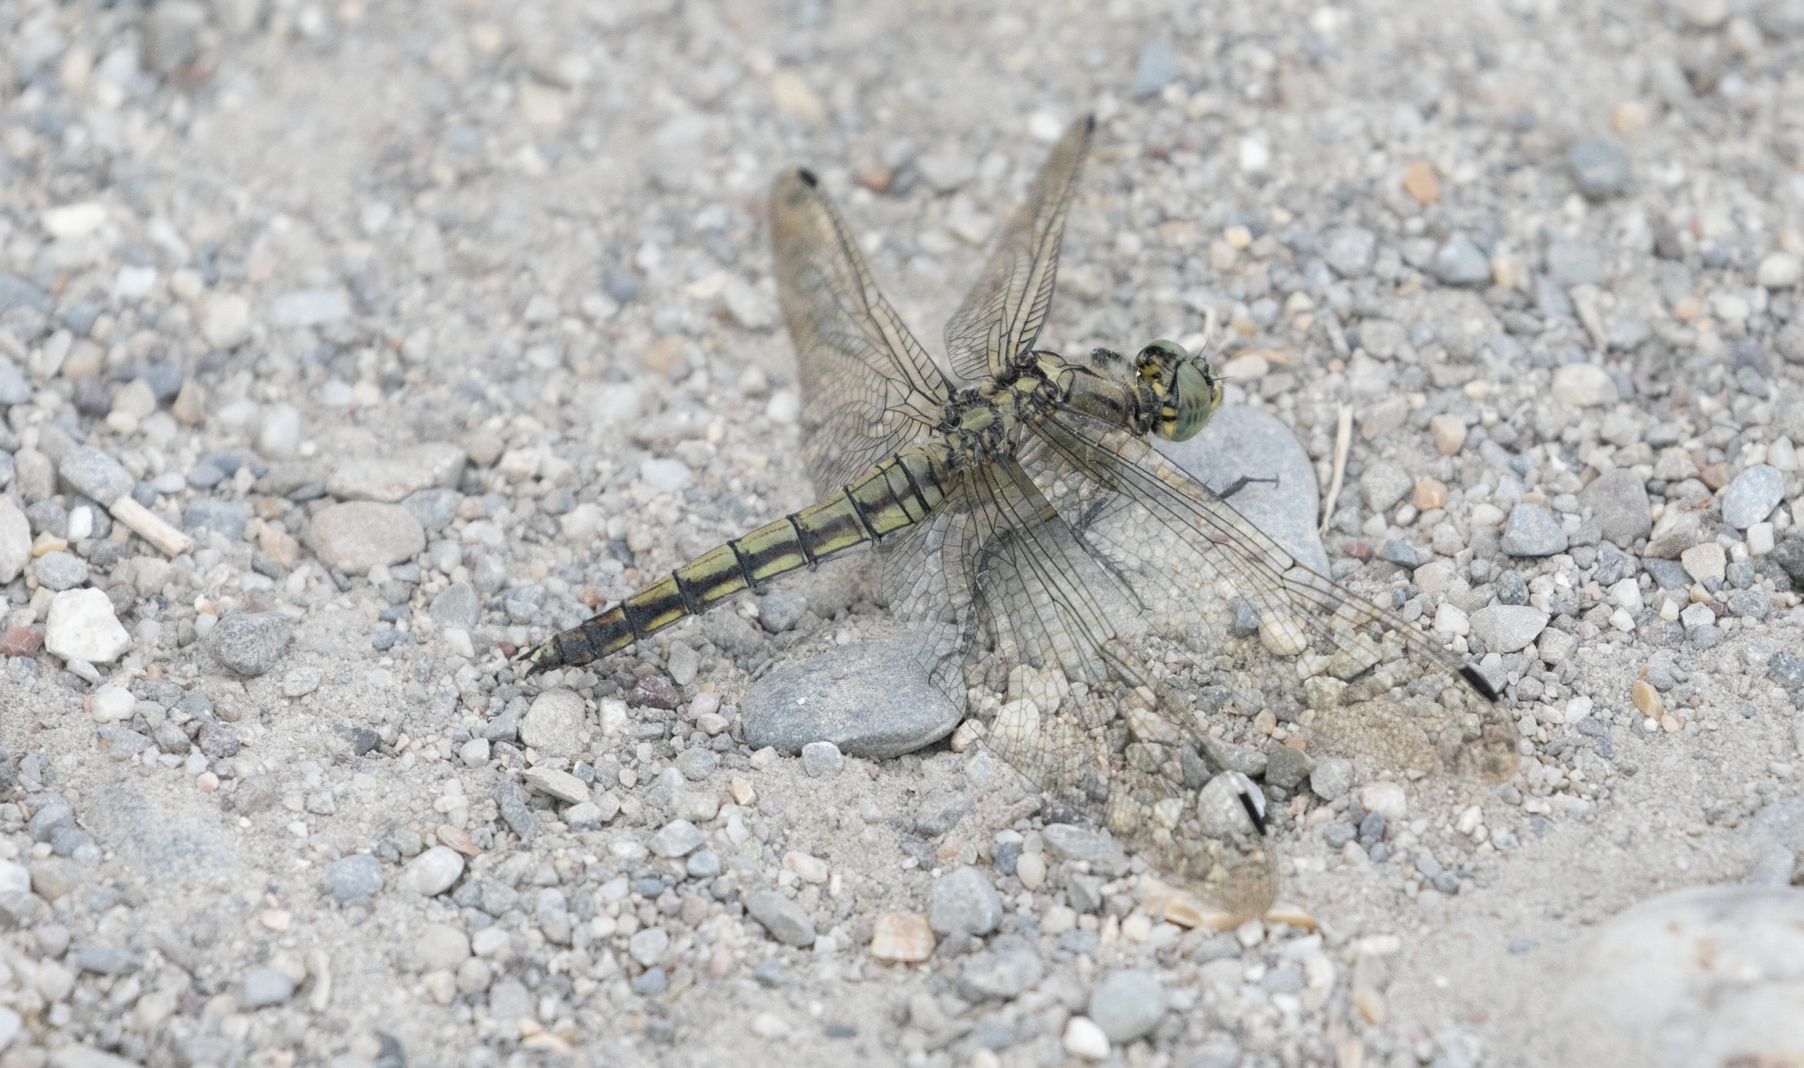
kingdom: Animalia
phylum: Arthropoda
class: Insecta
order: Odonata
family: Libellulidae
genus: Orthetrum
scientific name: Orthetrum cancellatum
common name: Black-tailed skimmer
